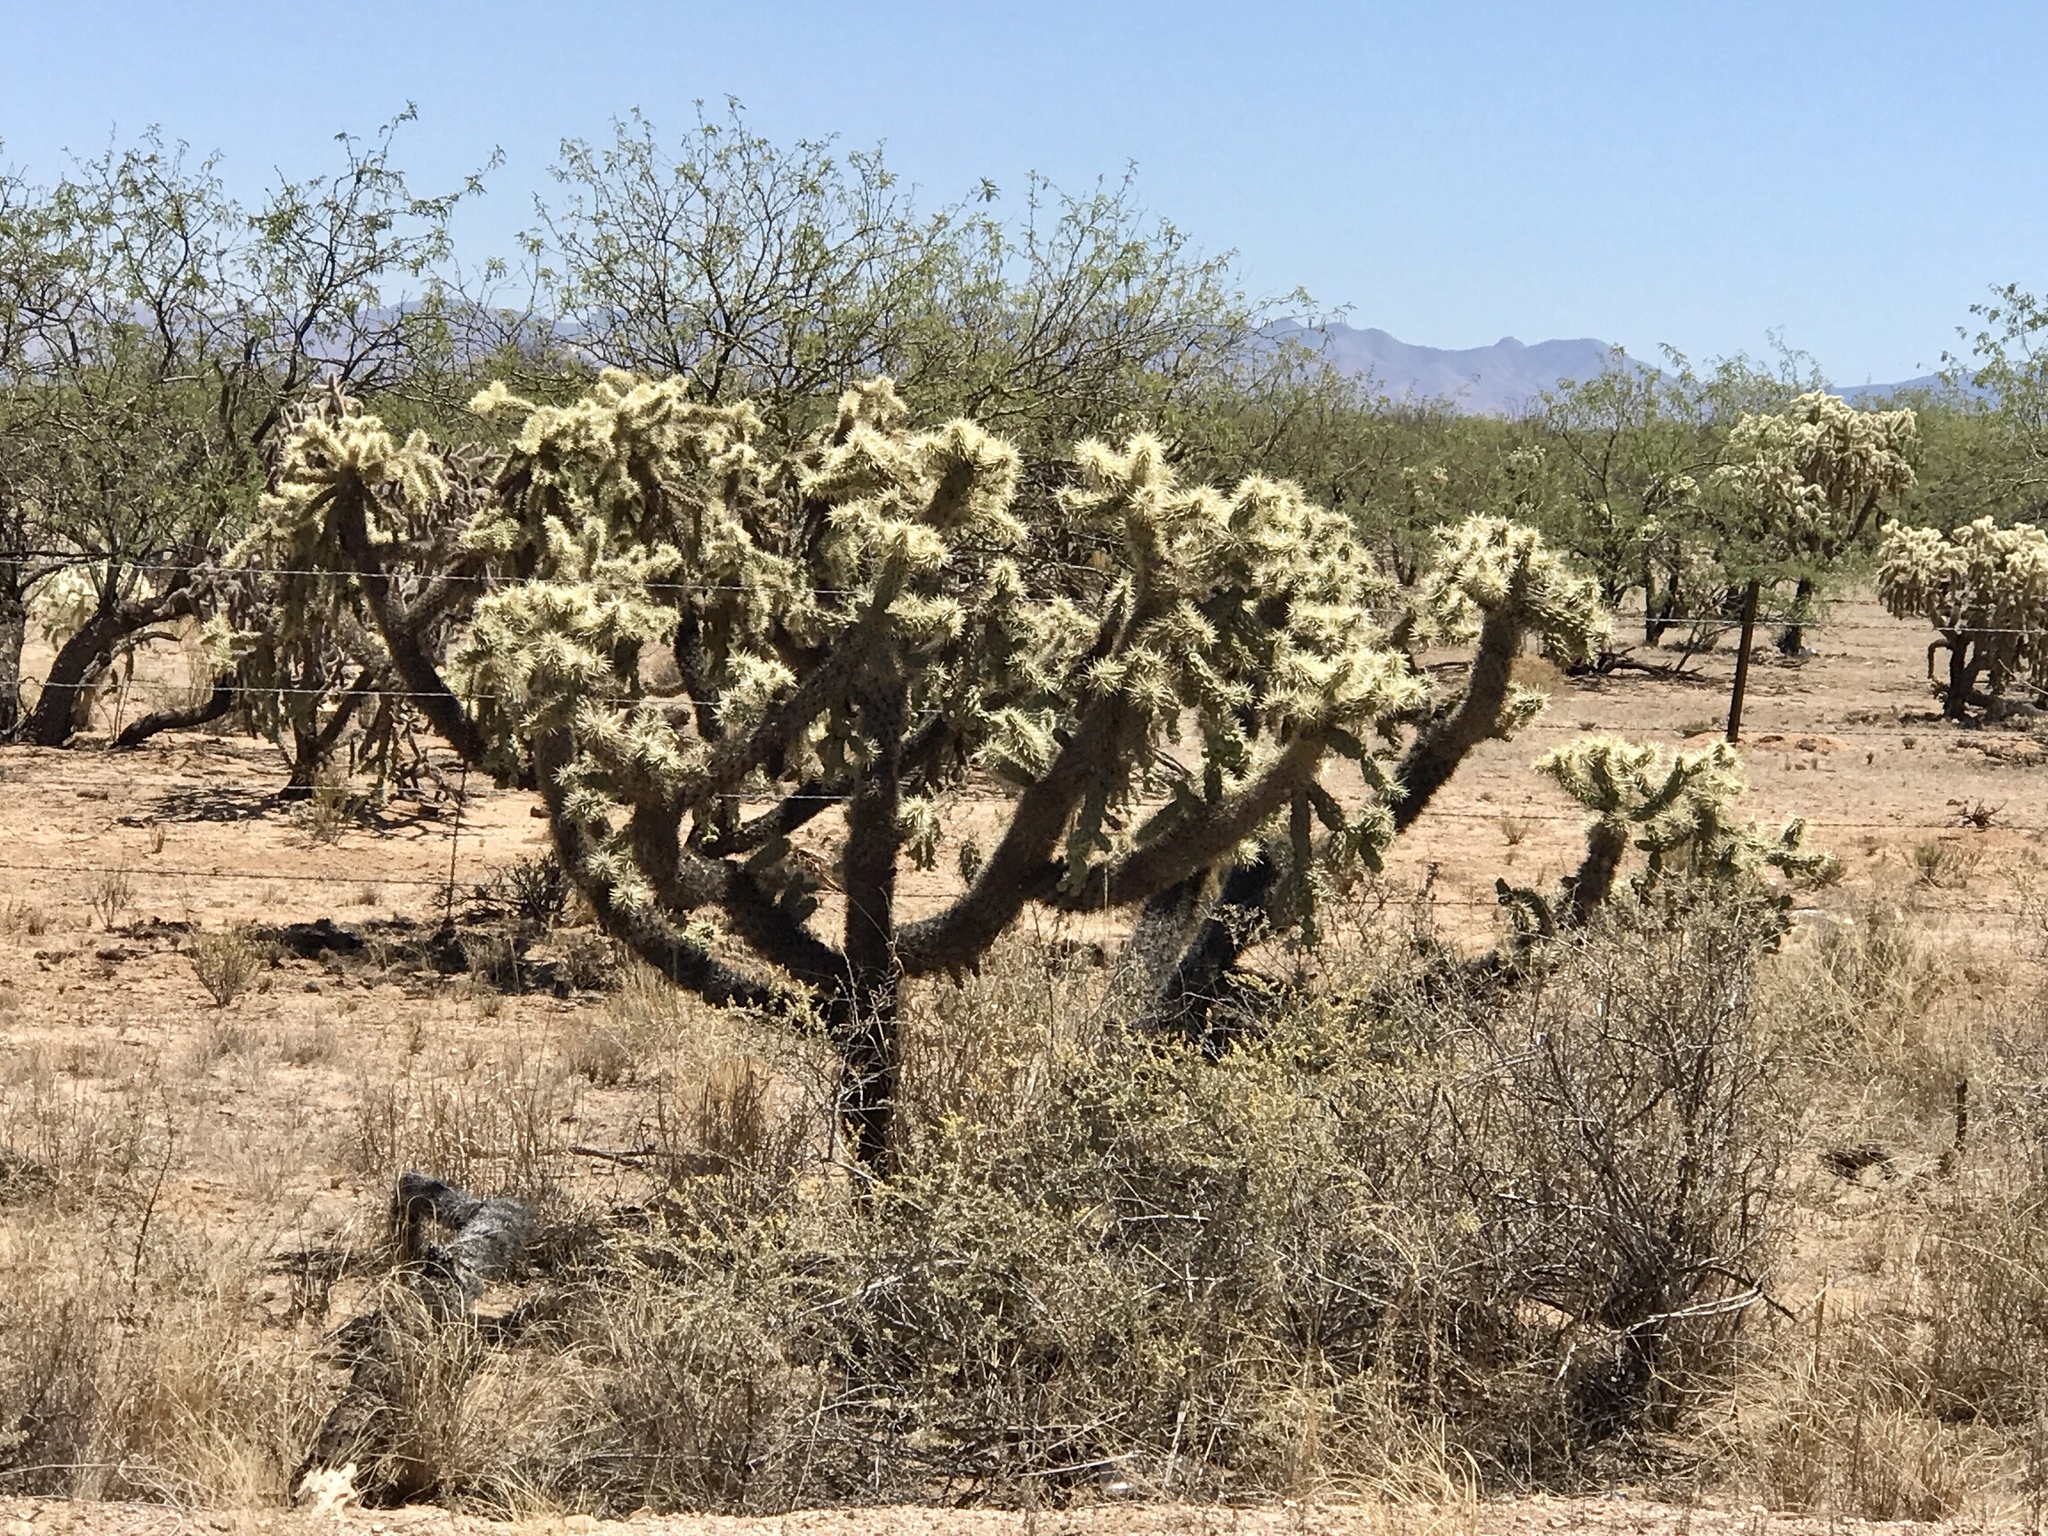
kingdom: Plantae
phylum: Tracheophyta
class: Magnoliopsida
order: Caryophyllales
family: Cactaceae
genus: Cylindropuntia
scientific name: Cylindropuntia fulgida
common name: Jumping cholla
